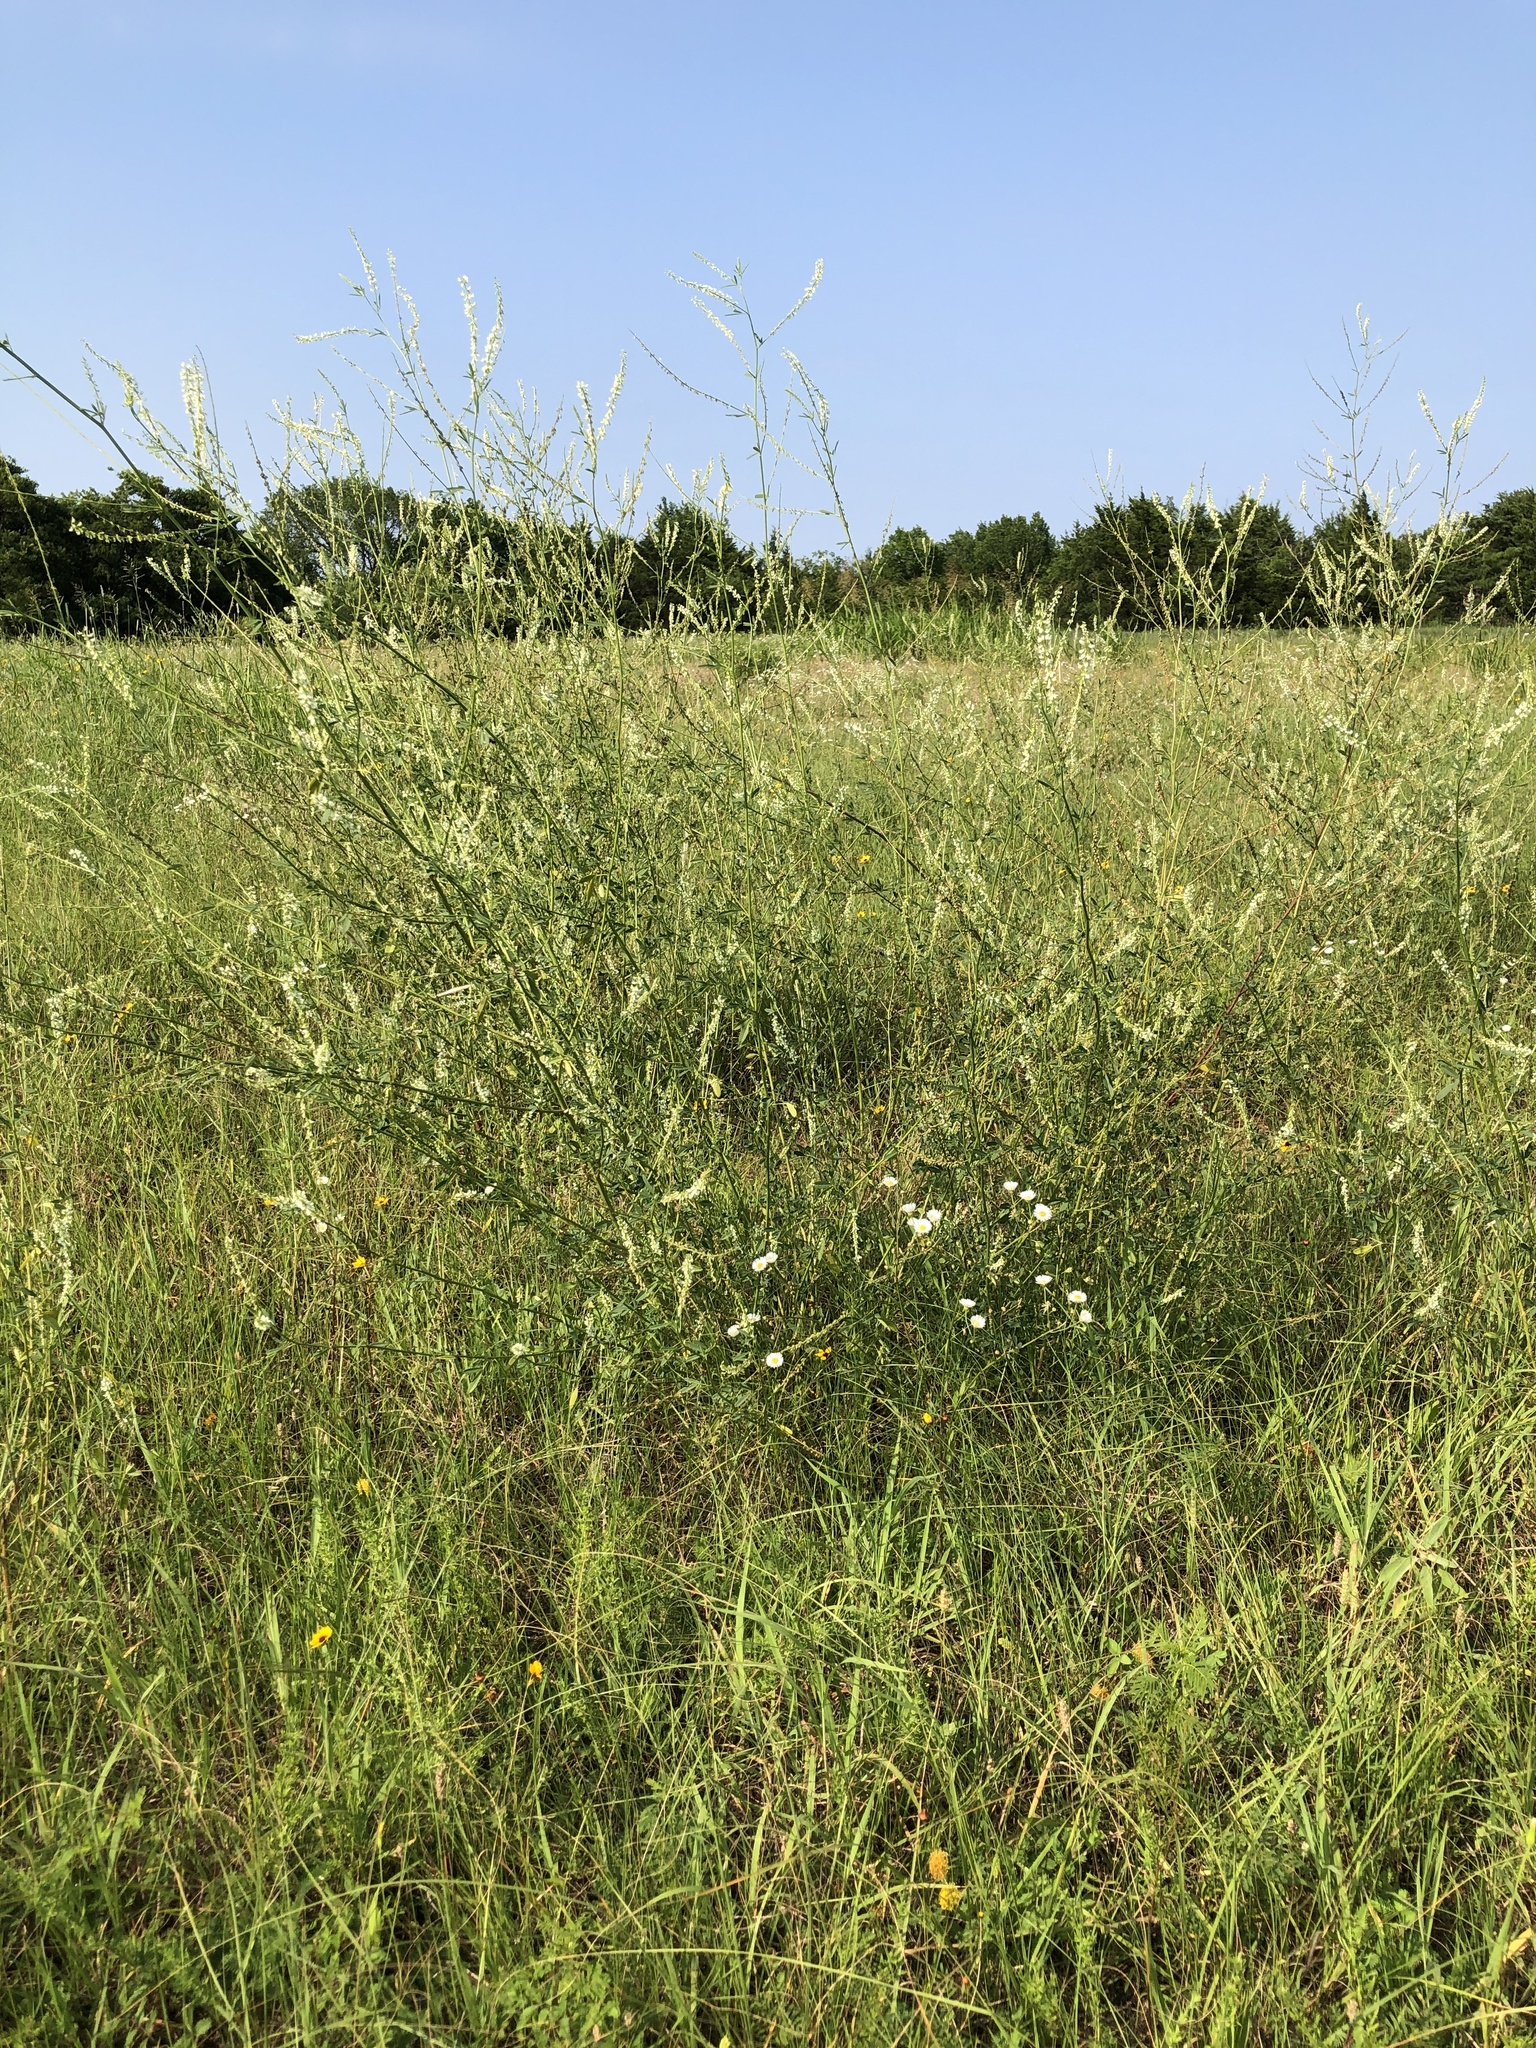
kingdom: Plantae
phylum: Tracheophyta
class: Magnoliopsida
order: Fabales
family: Fabaceae
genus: Melilotus
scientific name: Melilotus albus
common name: White melilot
